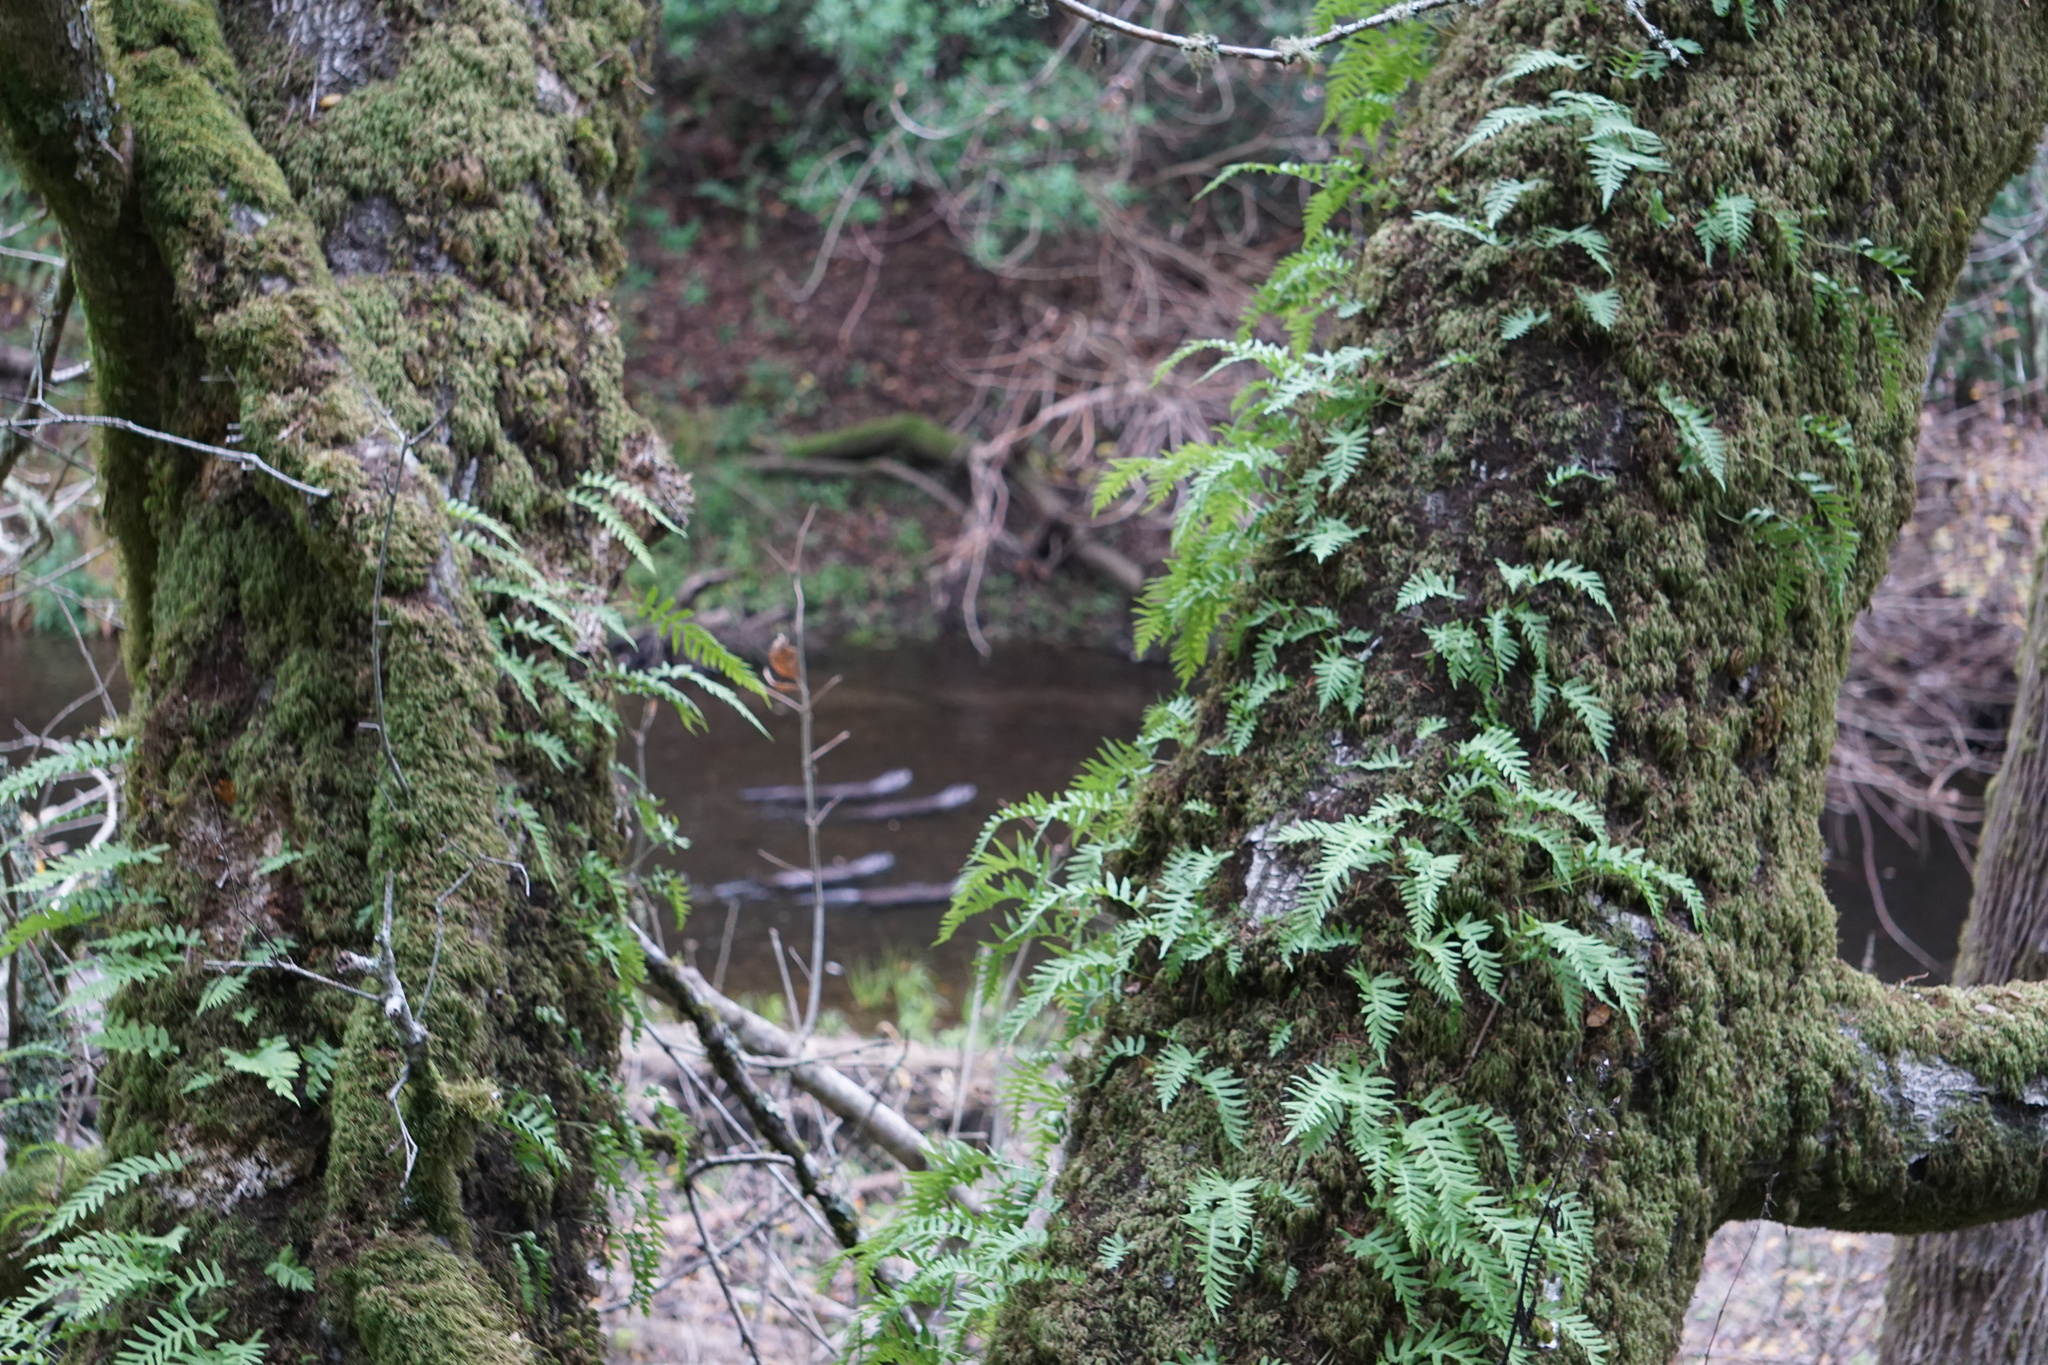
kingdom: Animalia
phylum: Chordata
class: Mammalia
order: Carnivora
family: Mustelidae
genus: Lontra
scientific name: Lontra canadensis
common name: North american river otter
